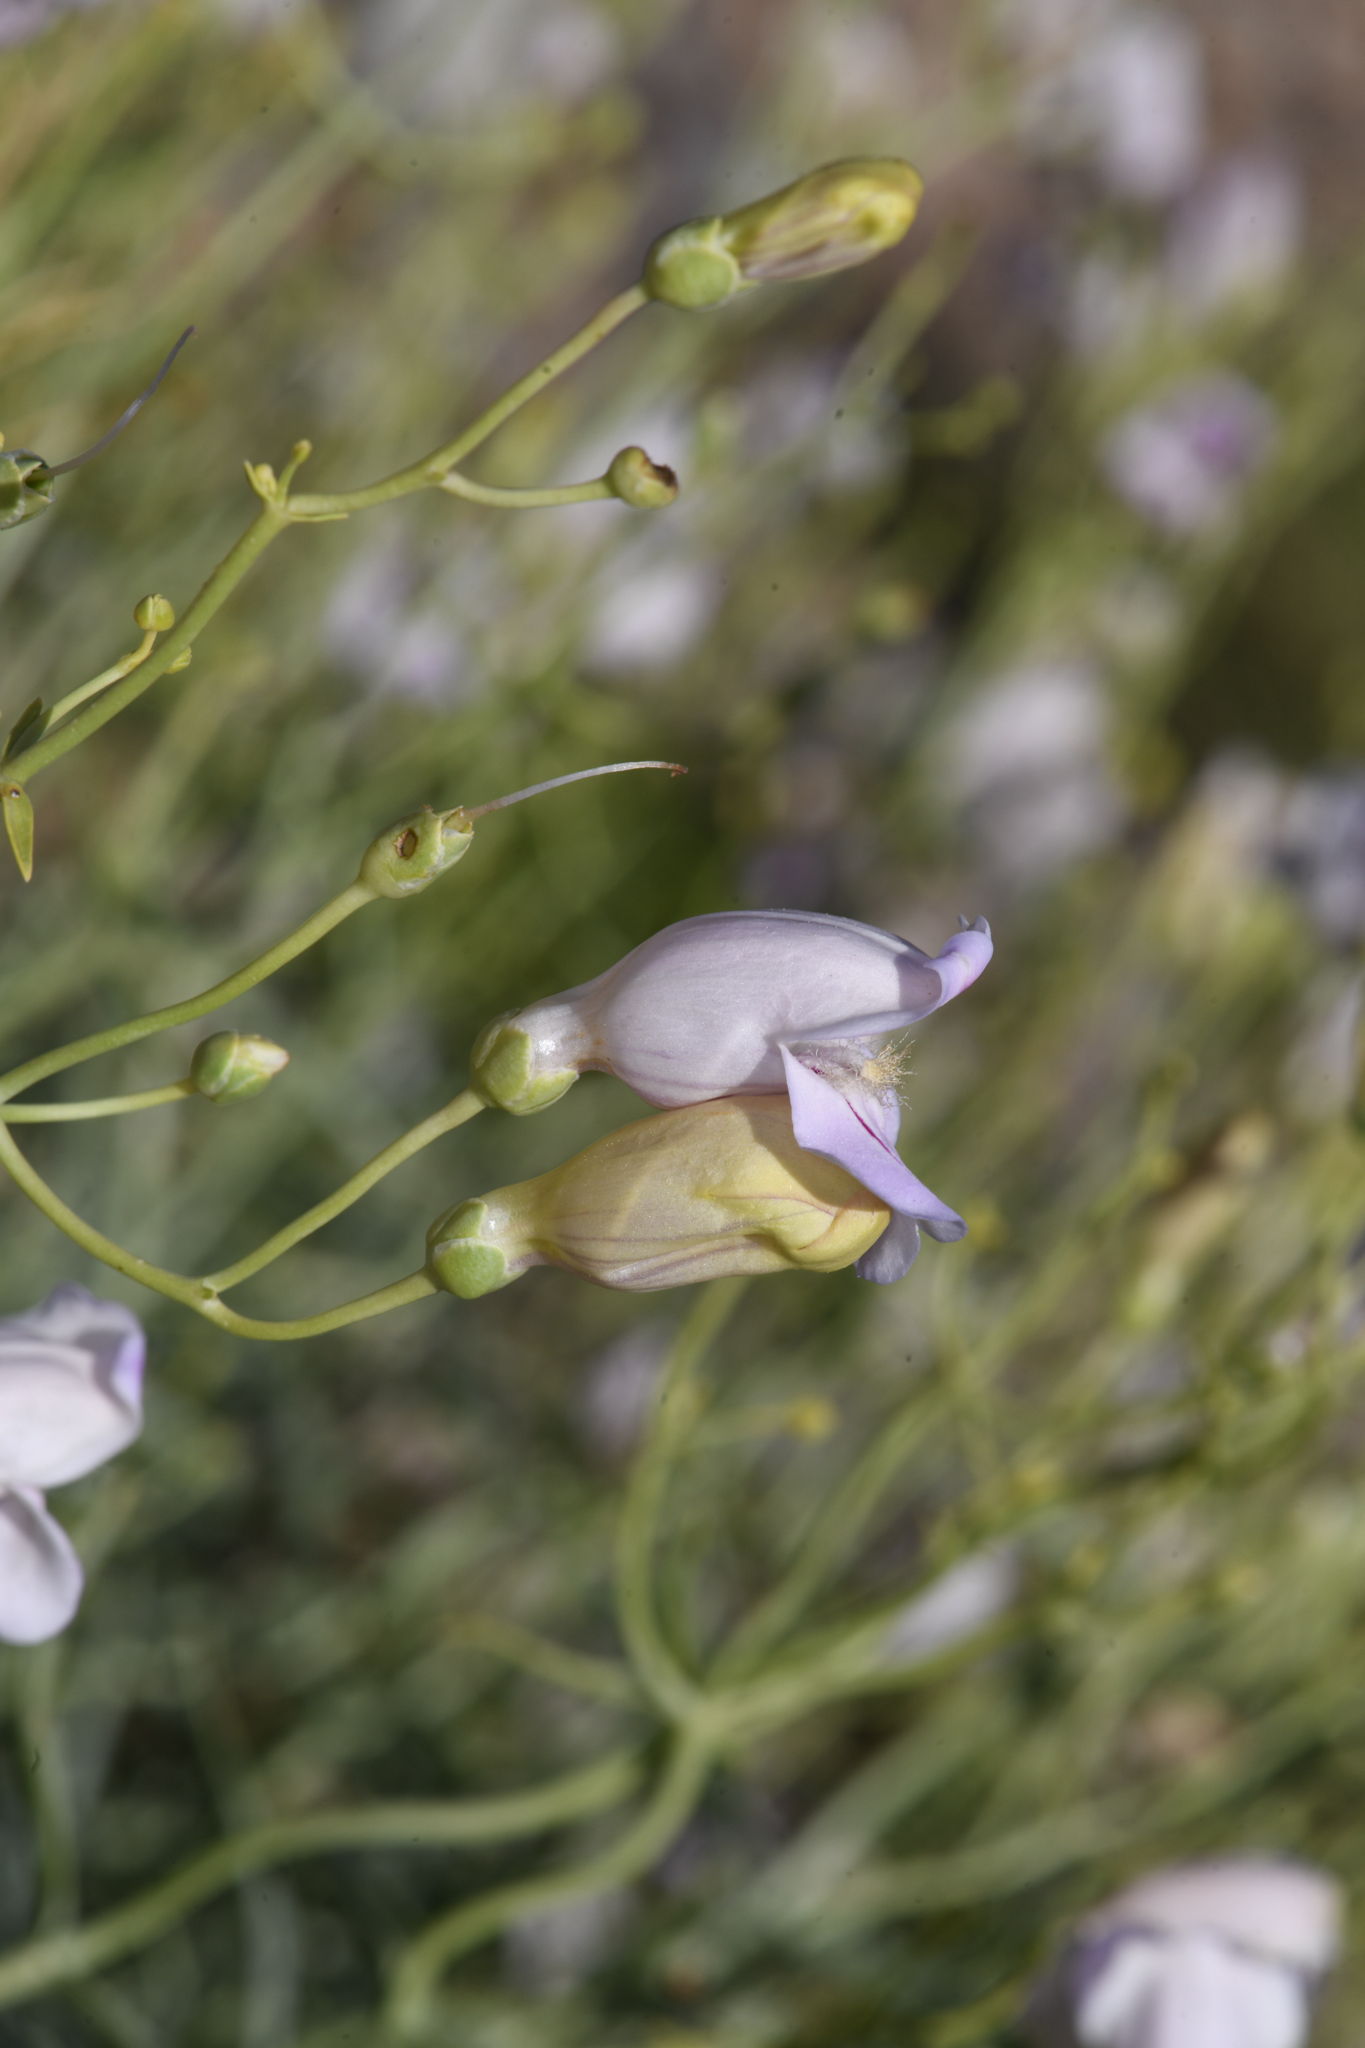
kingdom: Plantae
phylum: Tracheophyta
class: Magnoliopsida
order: Lamiales
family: Plantaginaceae
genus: Penstemon
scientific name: Penstemon fruticiformis
